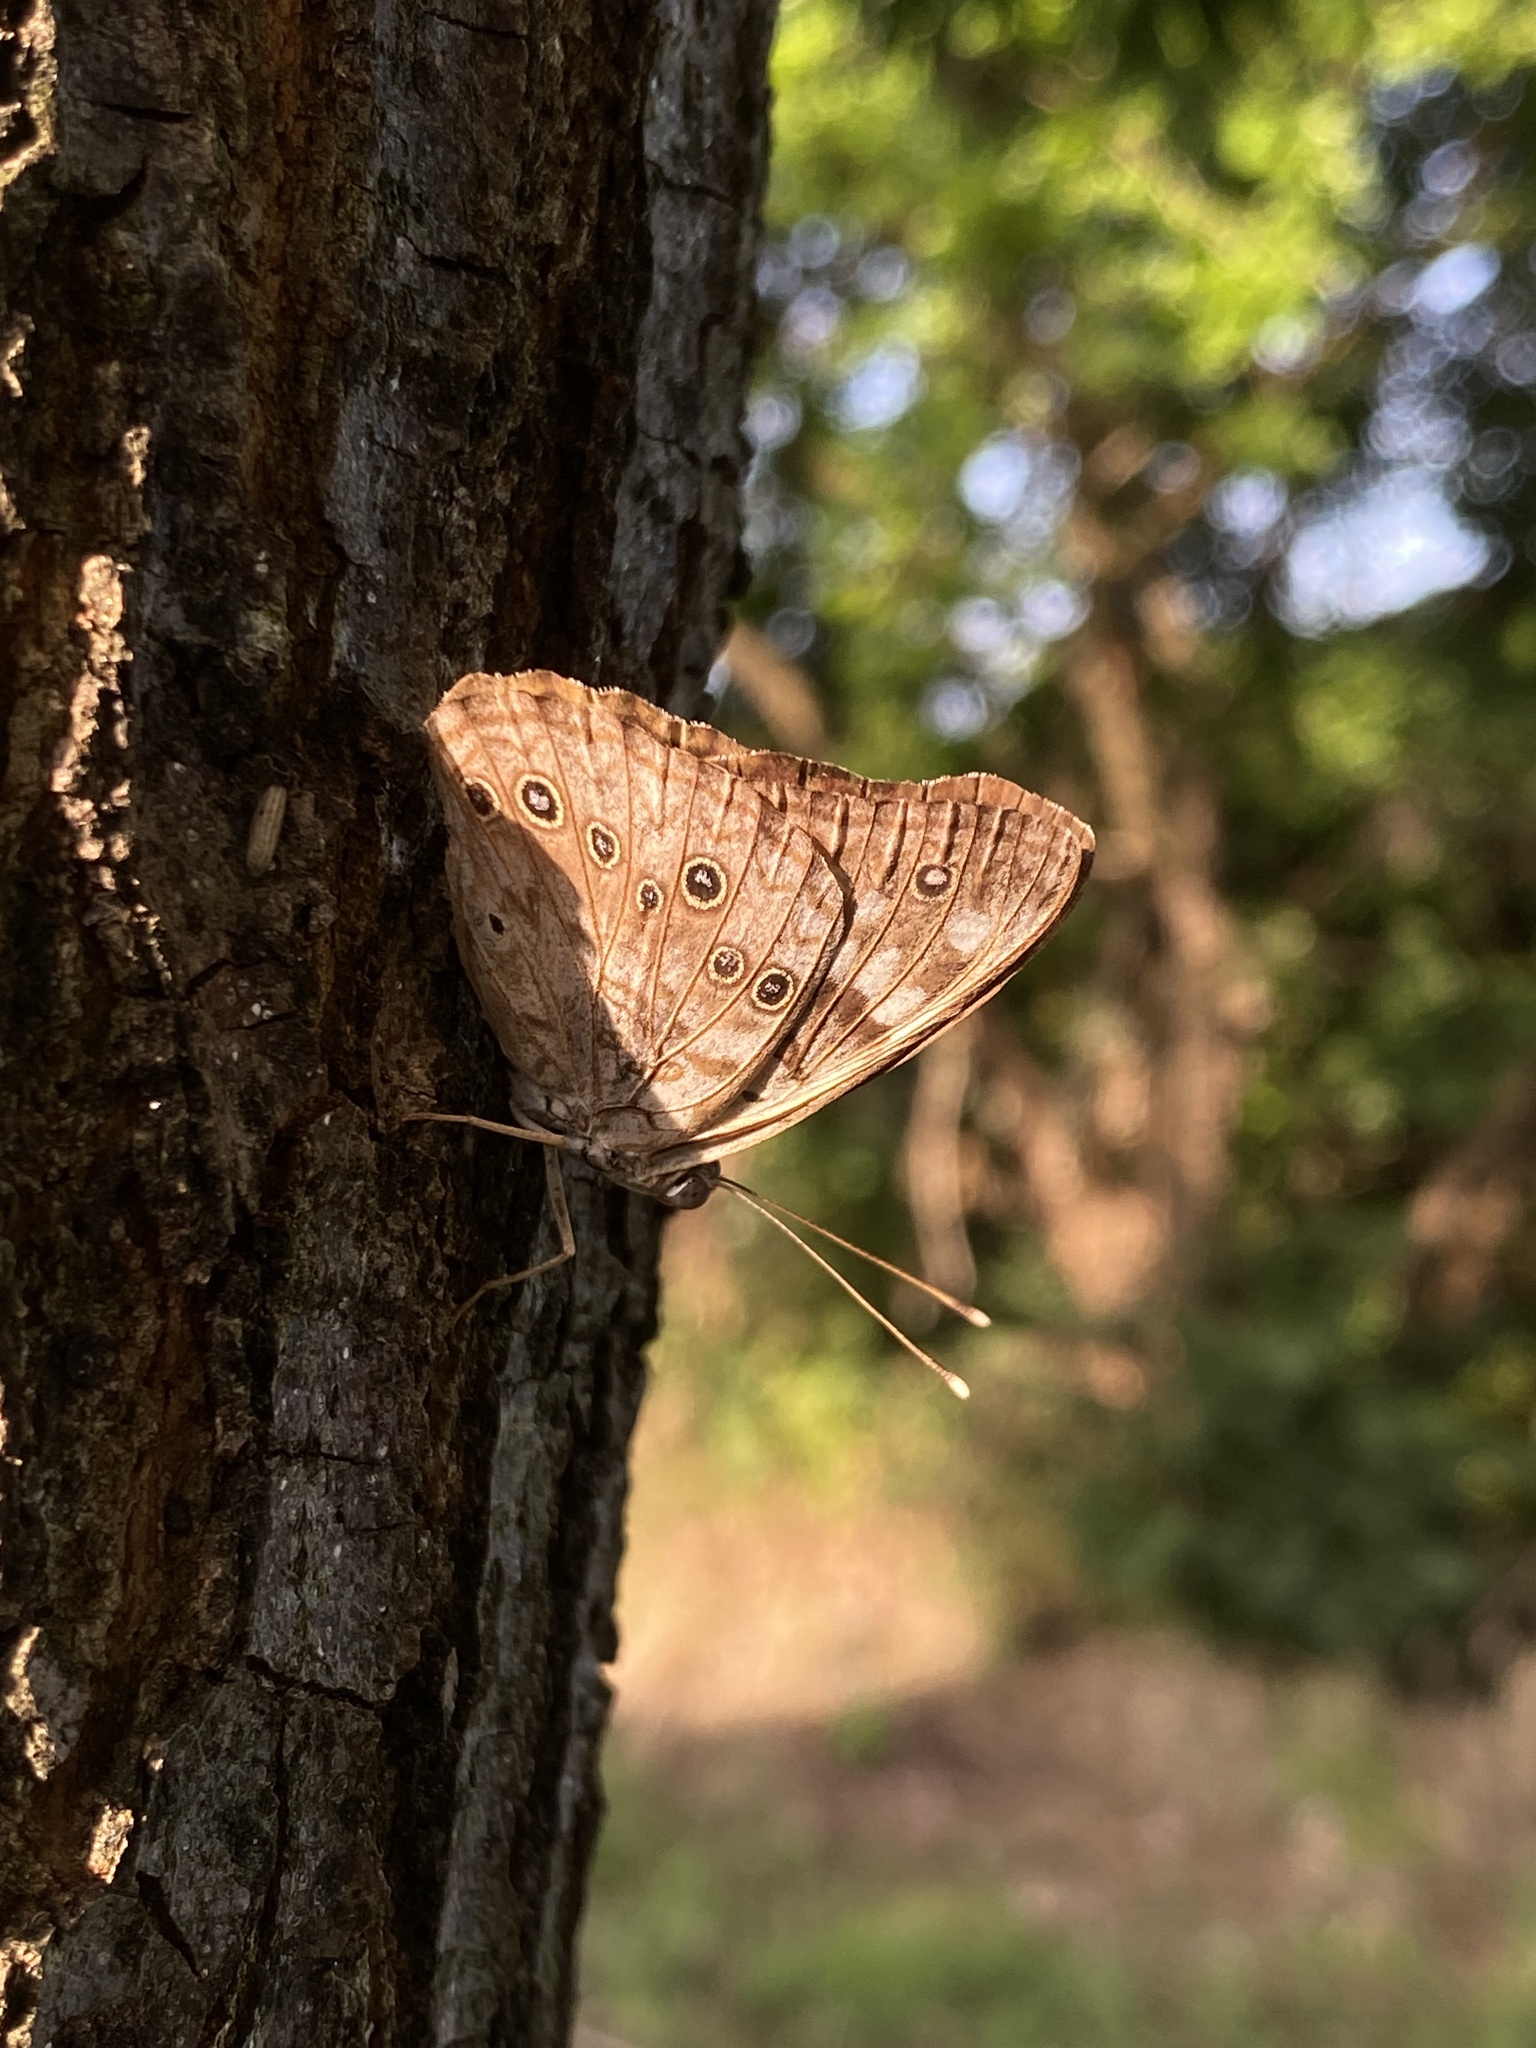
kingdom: Animalia
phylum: Arthropoda
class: Insecta
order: Lepidoptera
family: Nymphalidae
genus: Asterocampa
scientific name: Asterocampa celtis
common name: Hackberry emperor
